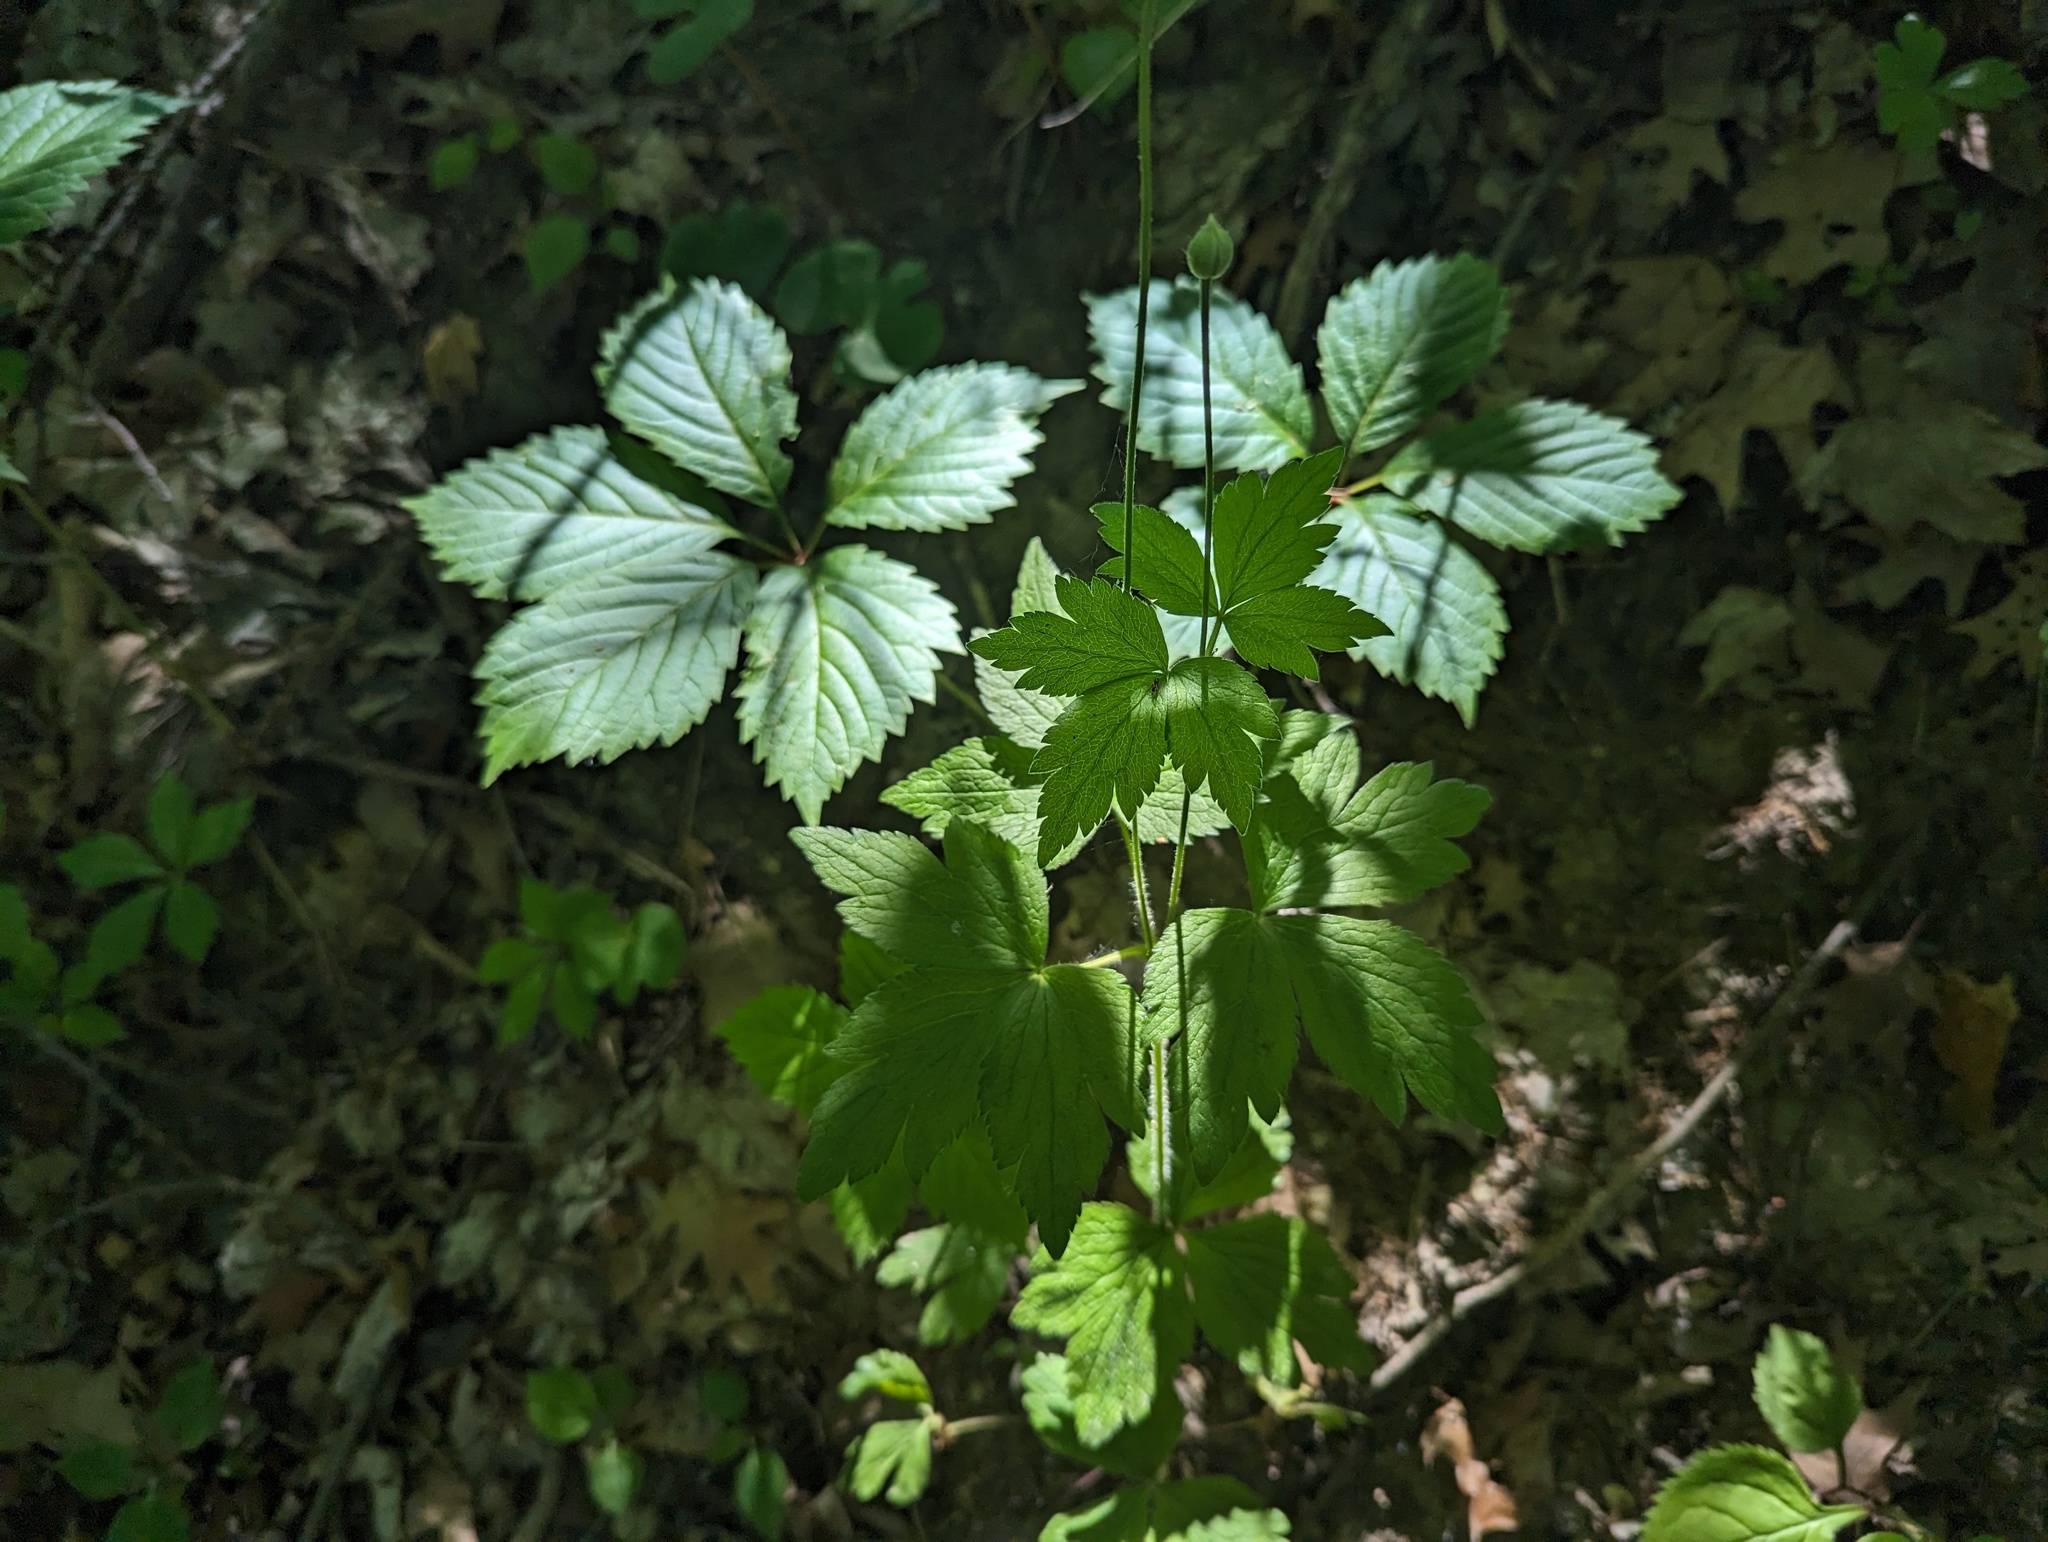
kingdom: Plantae
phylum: Tracheophyta
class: Magnoliopsida
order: Ranunculales
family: Ranunculaceae
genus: Anemone
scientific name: Anemone virginiana
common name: Tall anemone
